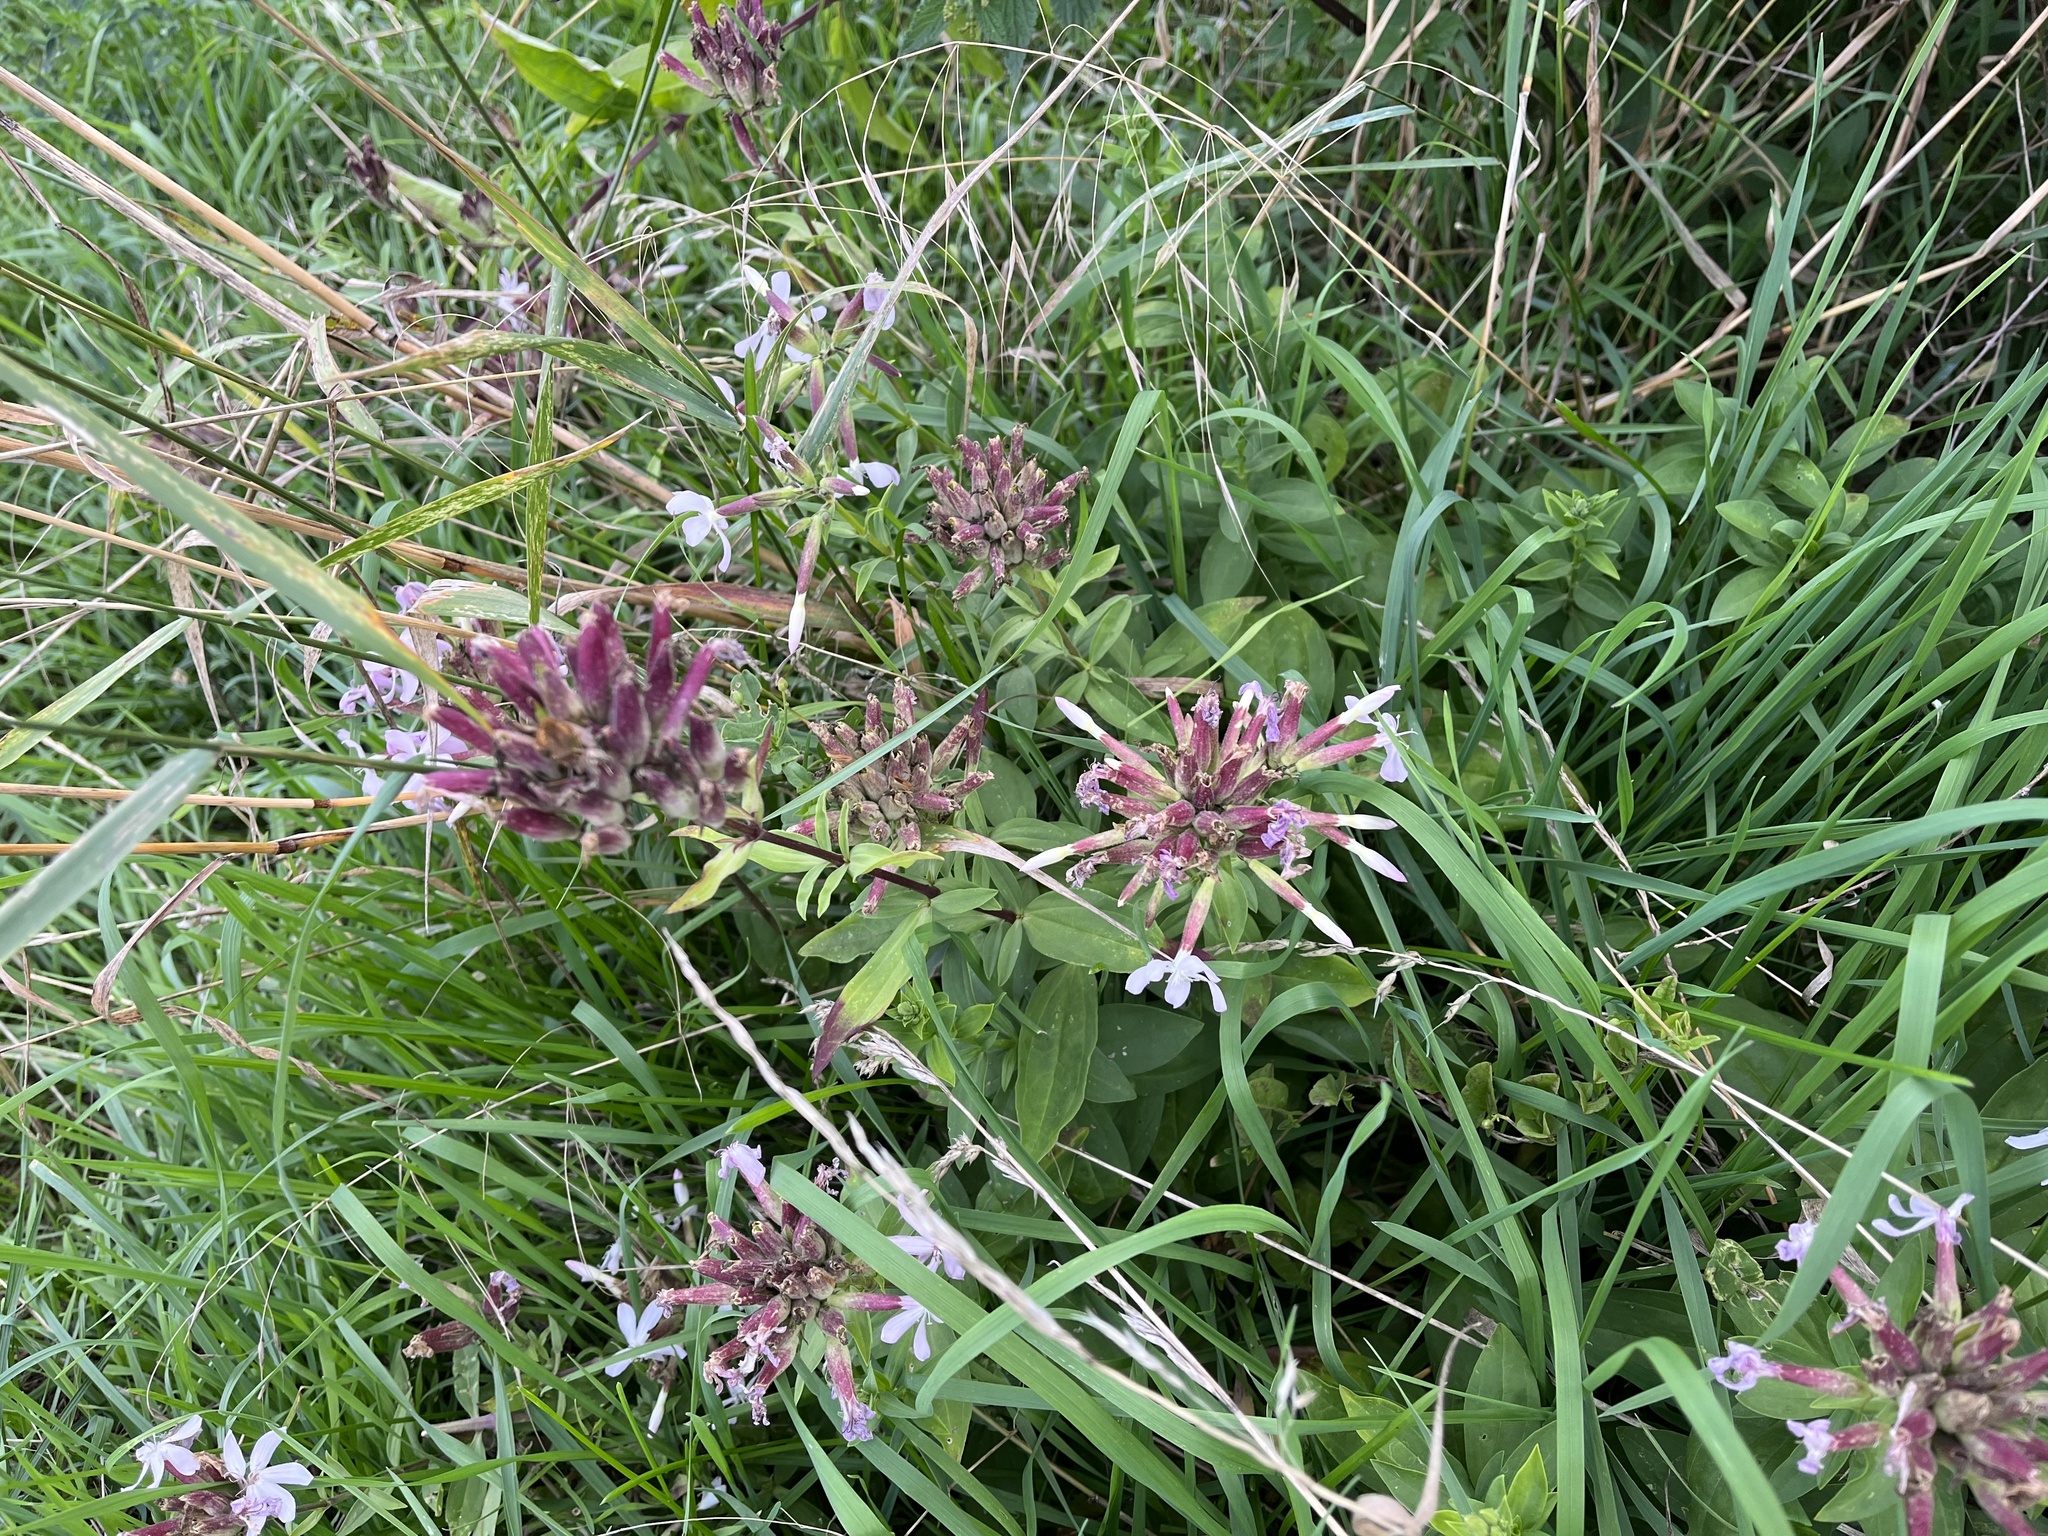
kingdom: Plantae
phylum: Tracheophyta
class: Magnoliopsida
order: Caryophyllales
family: Caryophyllaceae
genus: Saponaria
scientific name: Saponaria officinalis
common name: Soapwort
